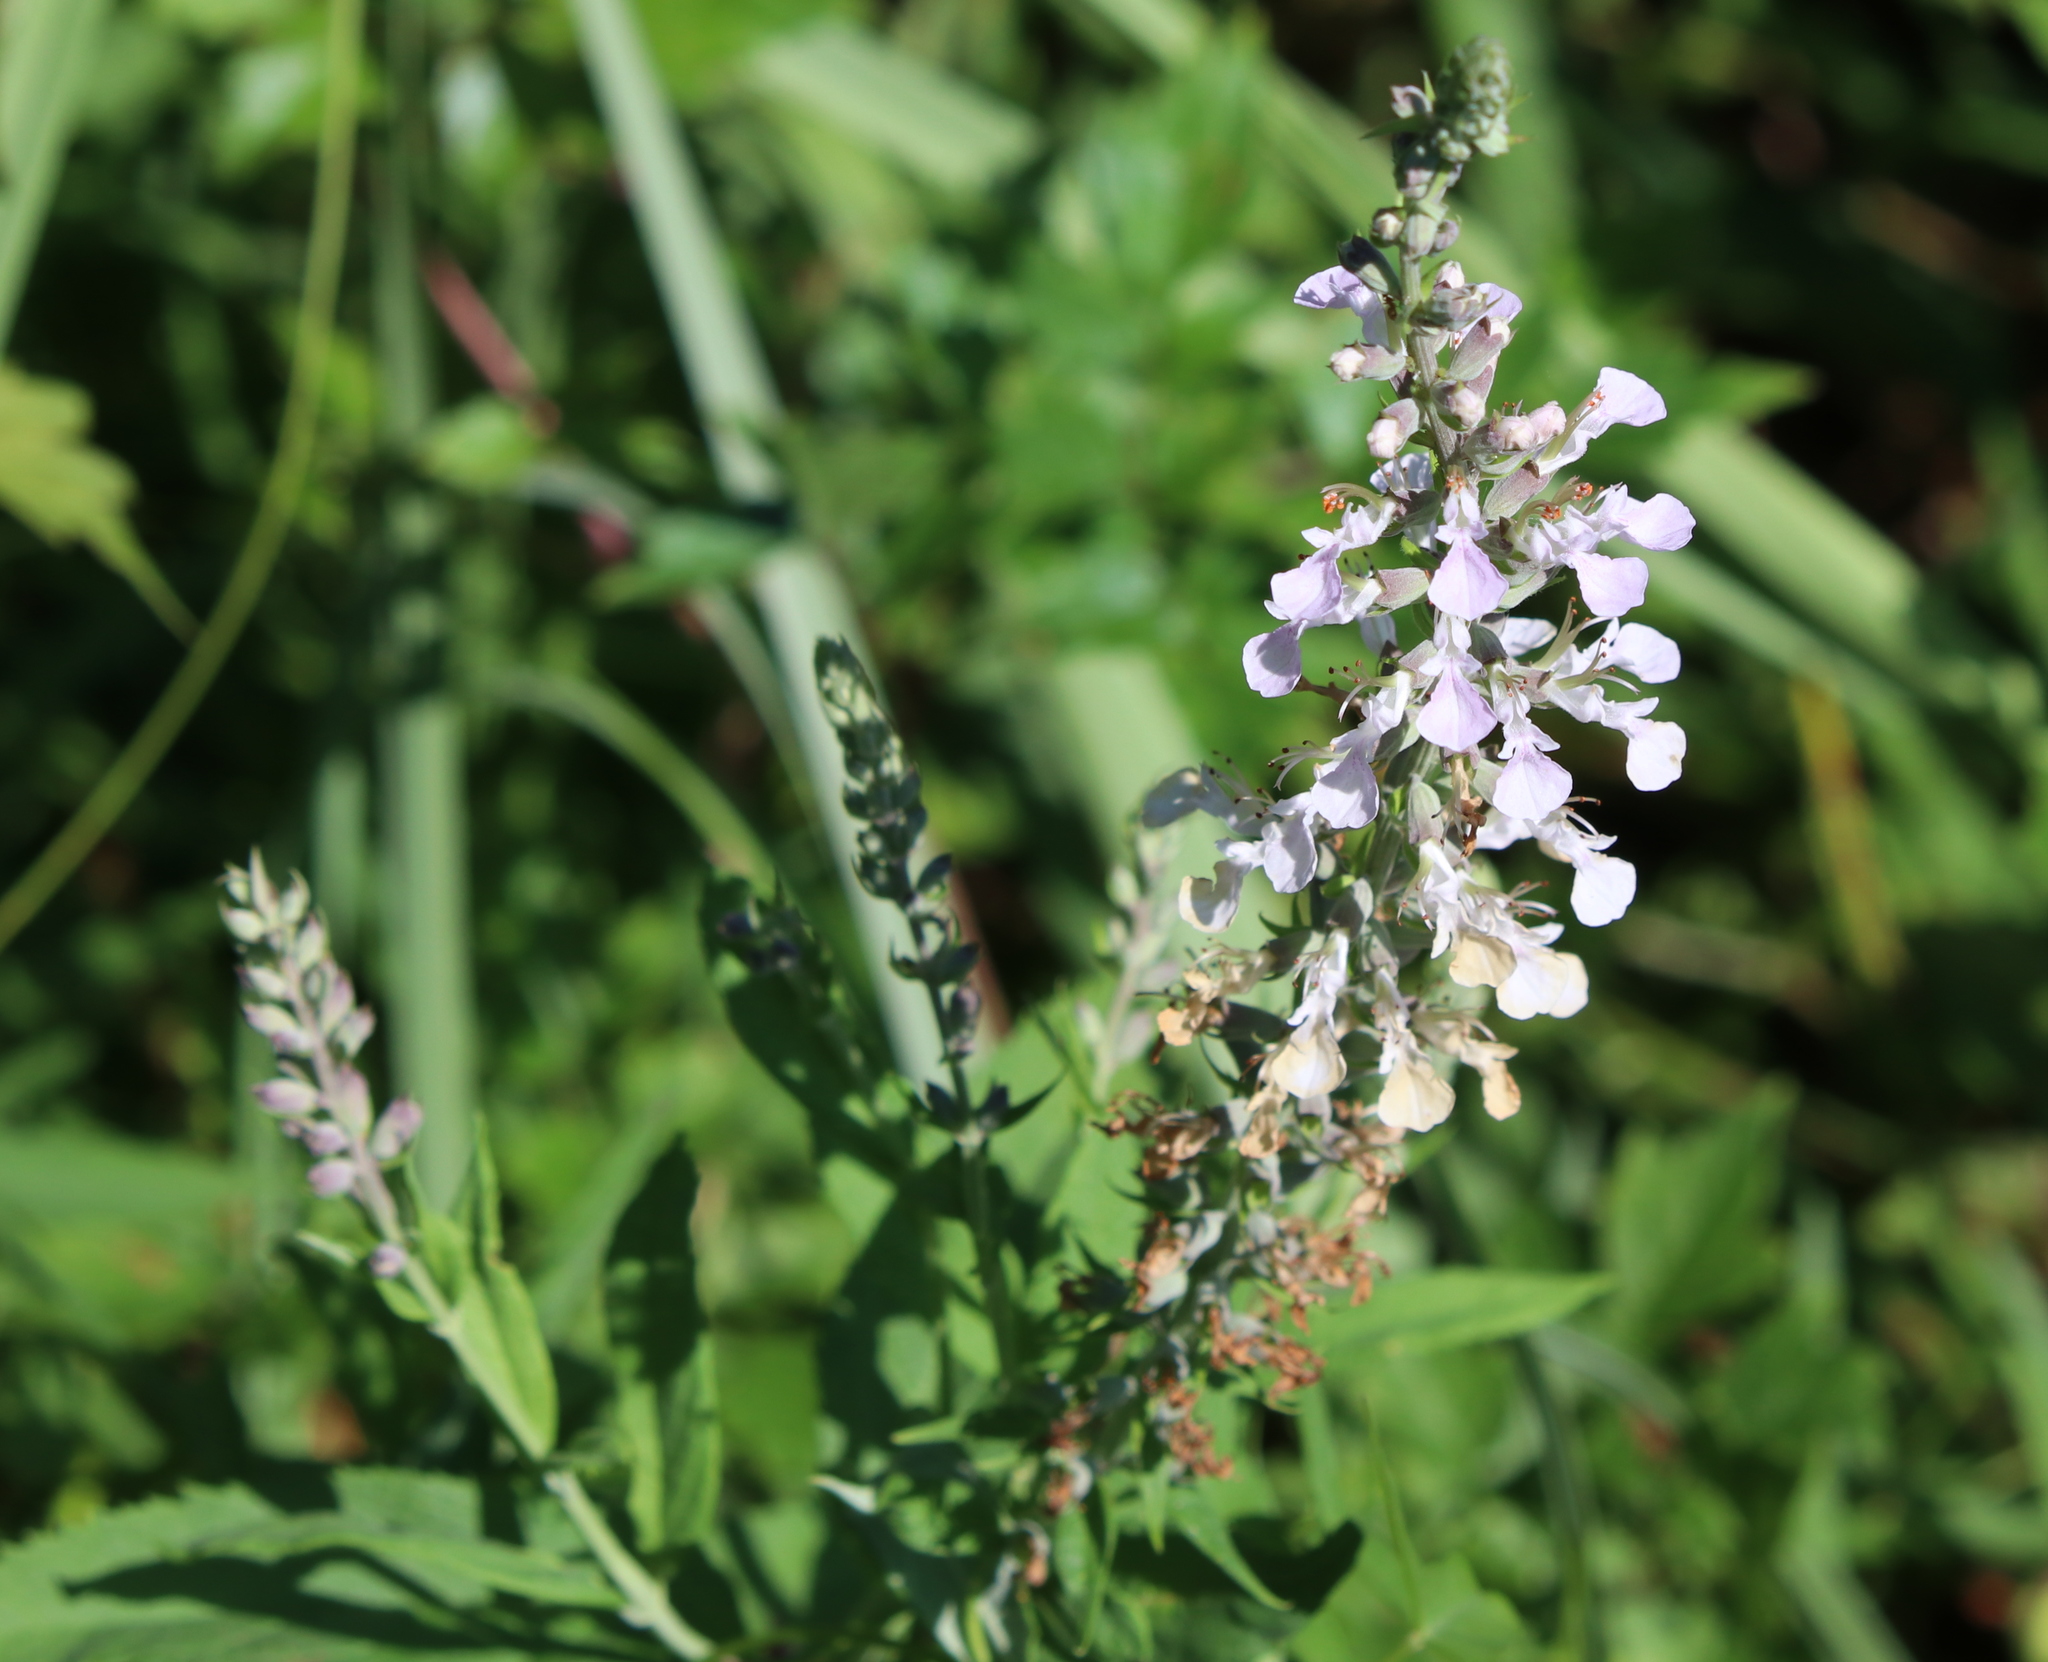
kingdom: Plantae
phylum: Tracheophyta
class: Magnoliopsida
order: Lamiales
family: Lamiaceae
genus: Teucrium
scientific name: Teucrium canadense
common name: American germander
